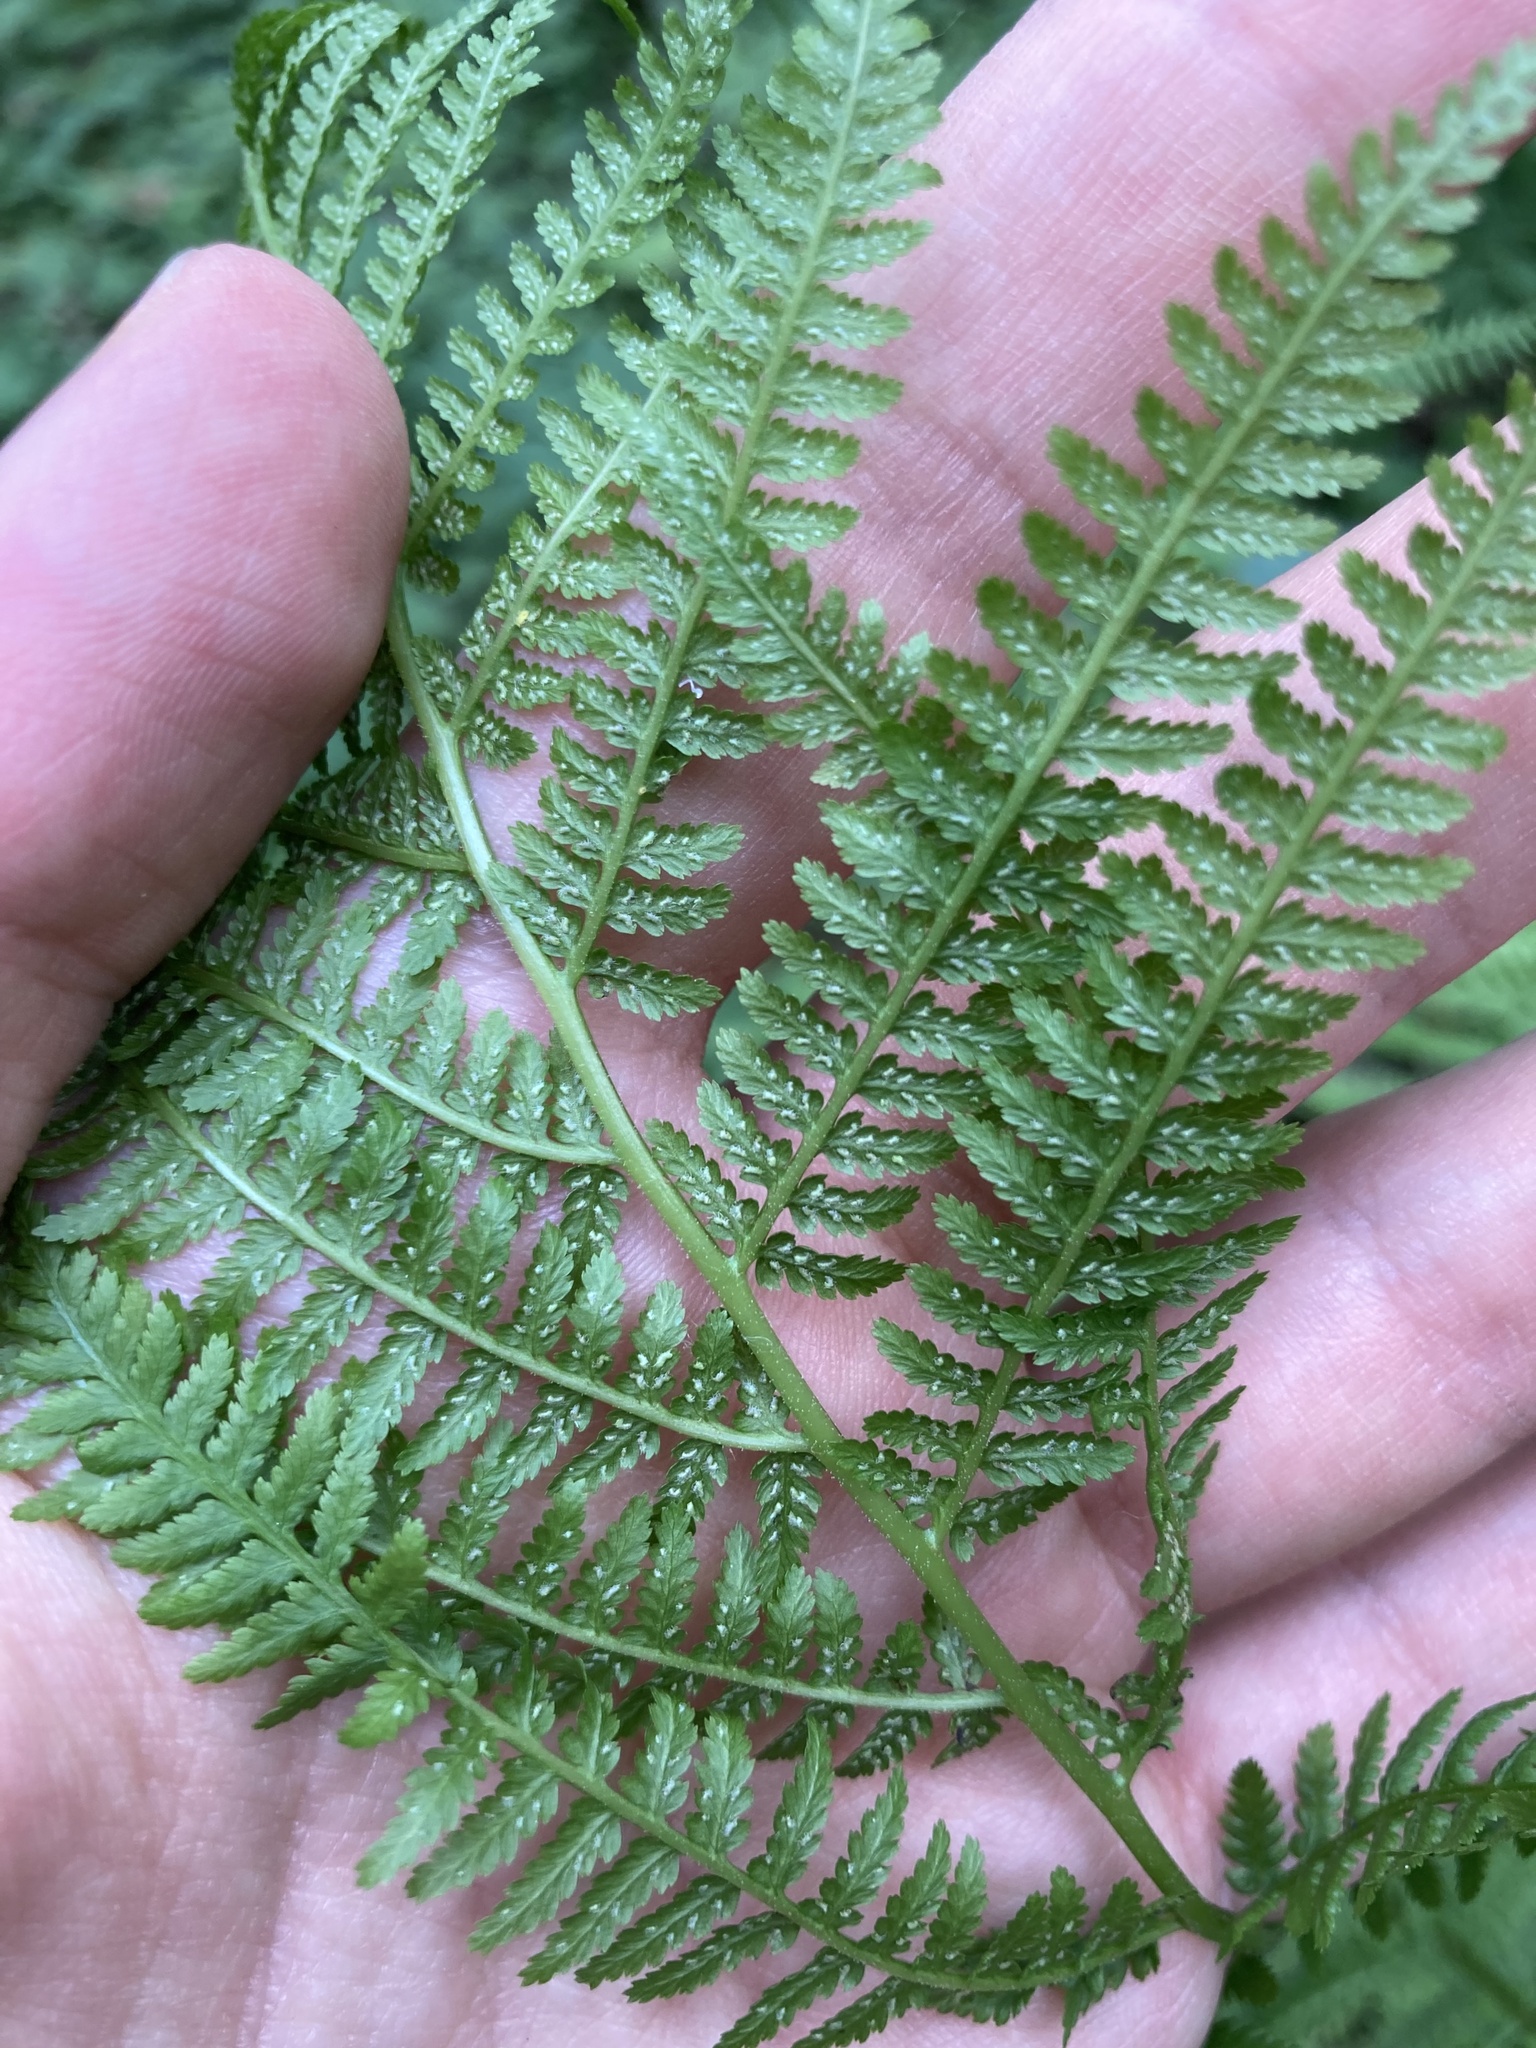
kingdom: Plantae
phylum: Tracheophyta
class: Polypodiopsida
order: Polypodiales
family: Athyriaceae
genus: Athyrium
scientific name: Athyrium filix-femina
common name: Lady fern
